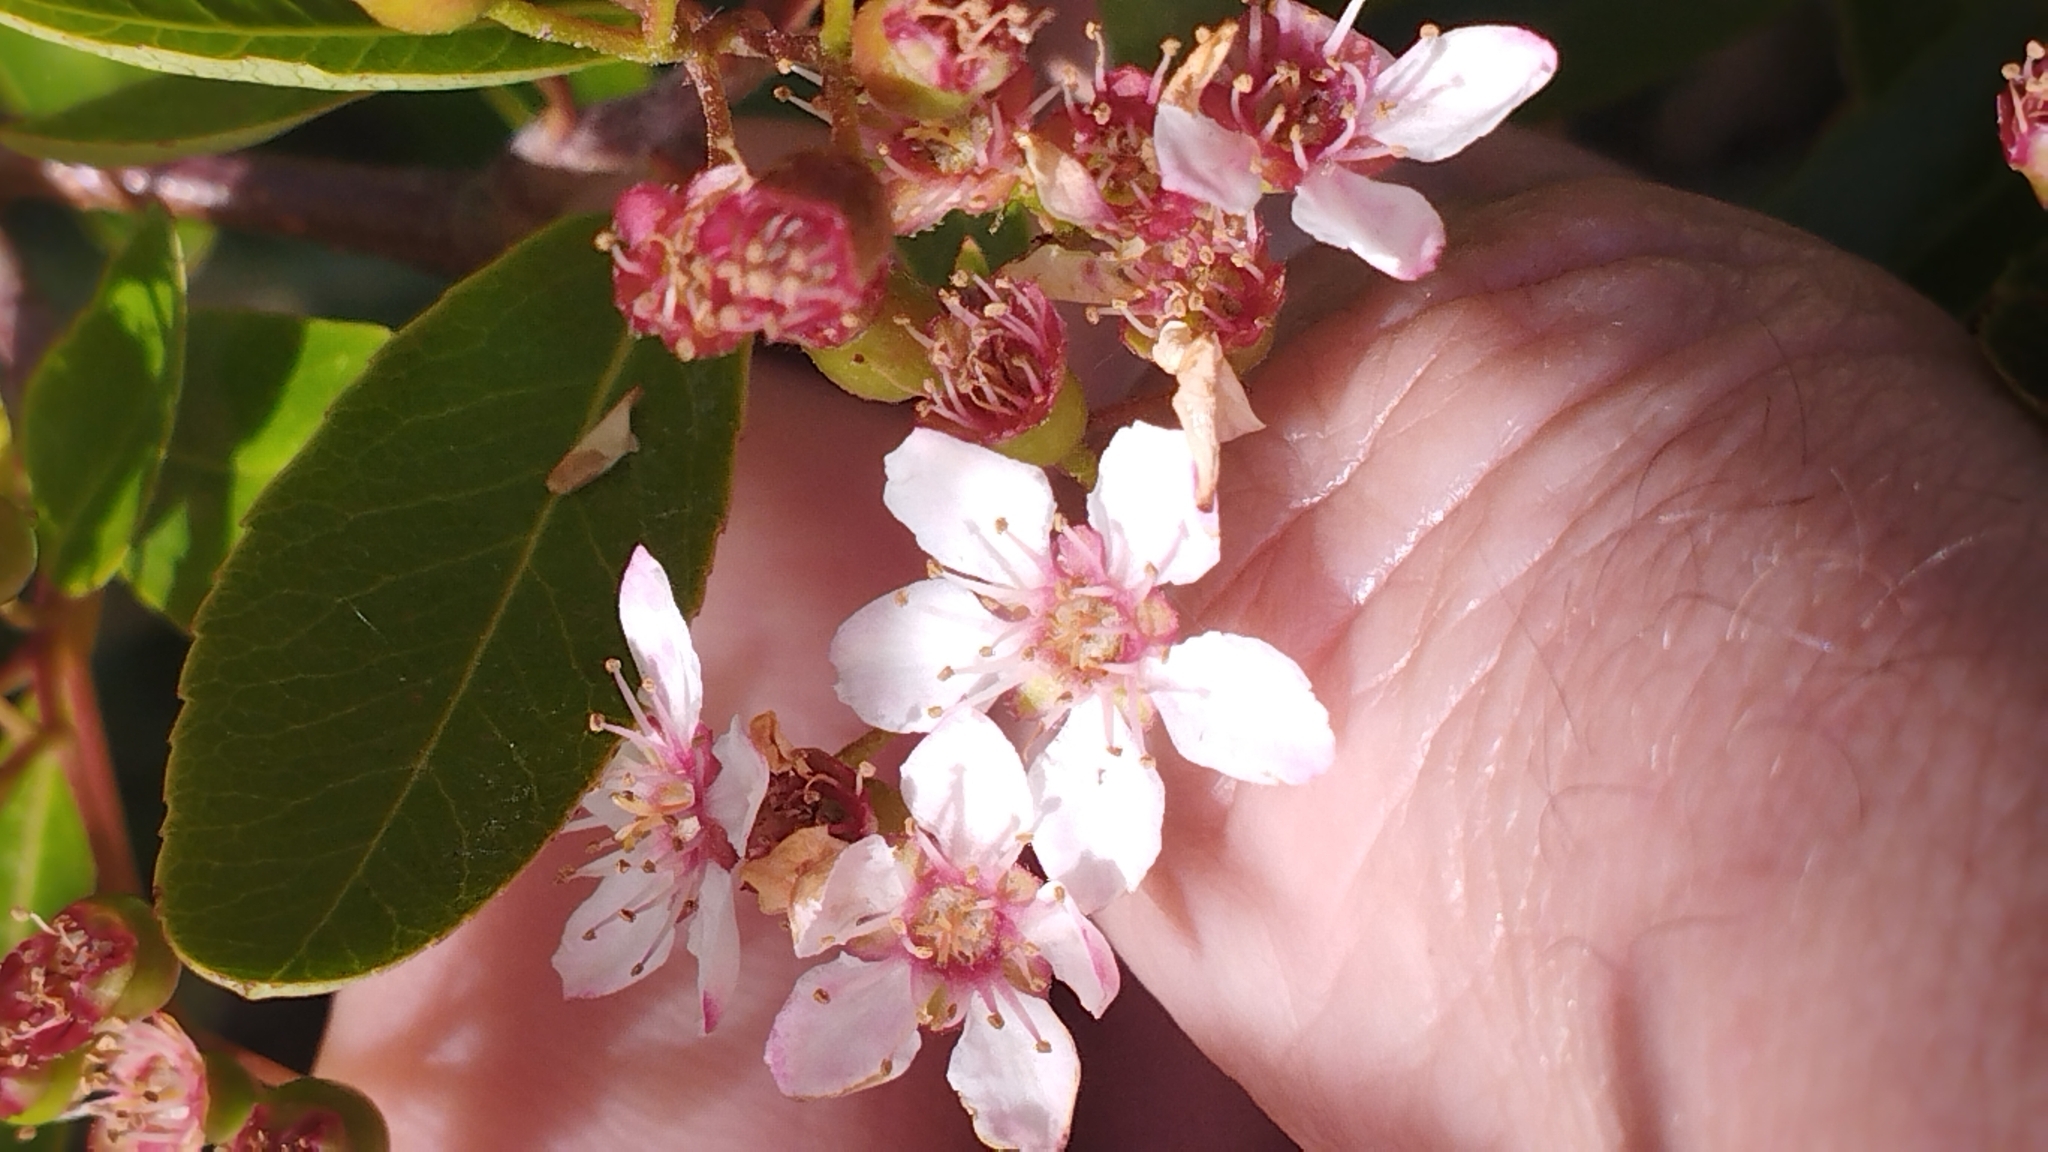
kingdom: Plantae
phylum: Tracheophyta
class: Magnoliopsida
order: Rosales
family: Rosaceae
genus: Pyracantha
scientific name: Pyracantha crenulata
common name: Nepalese firethorn
